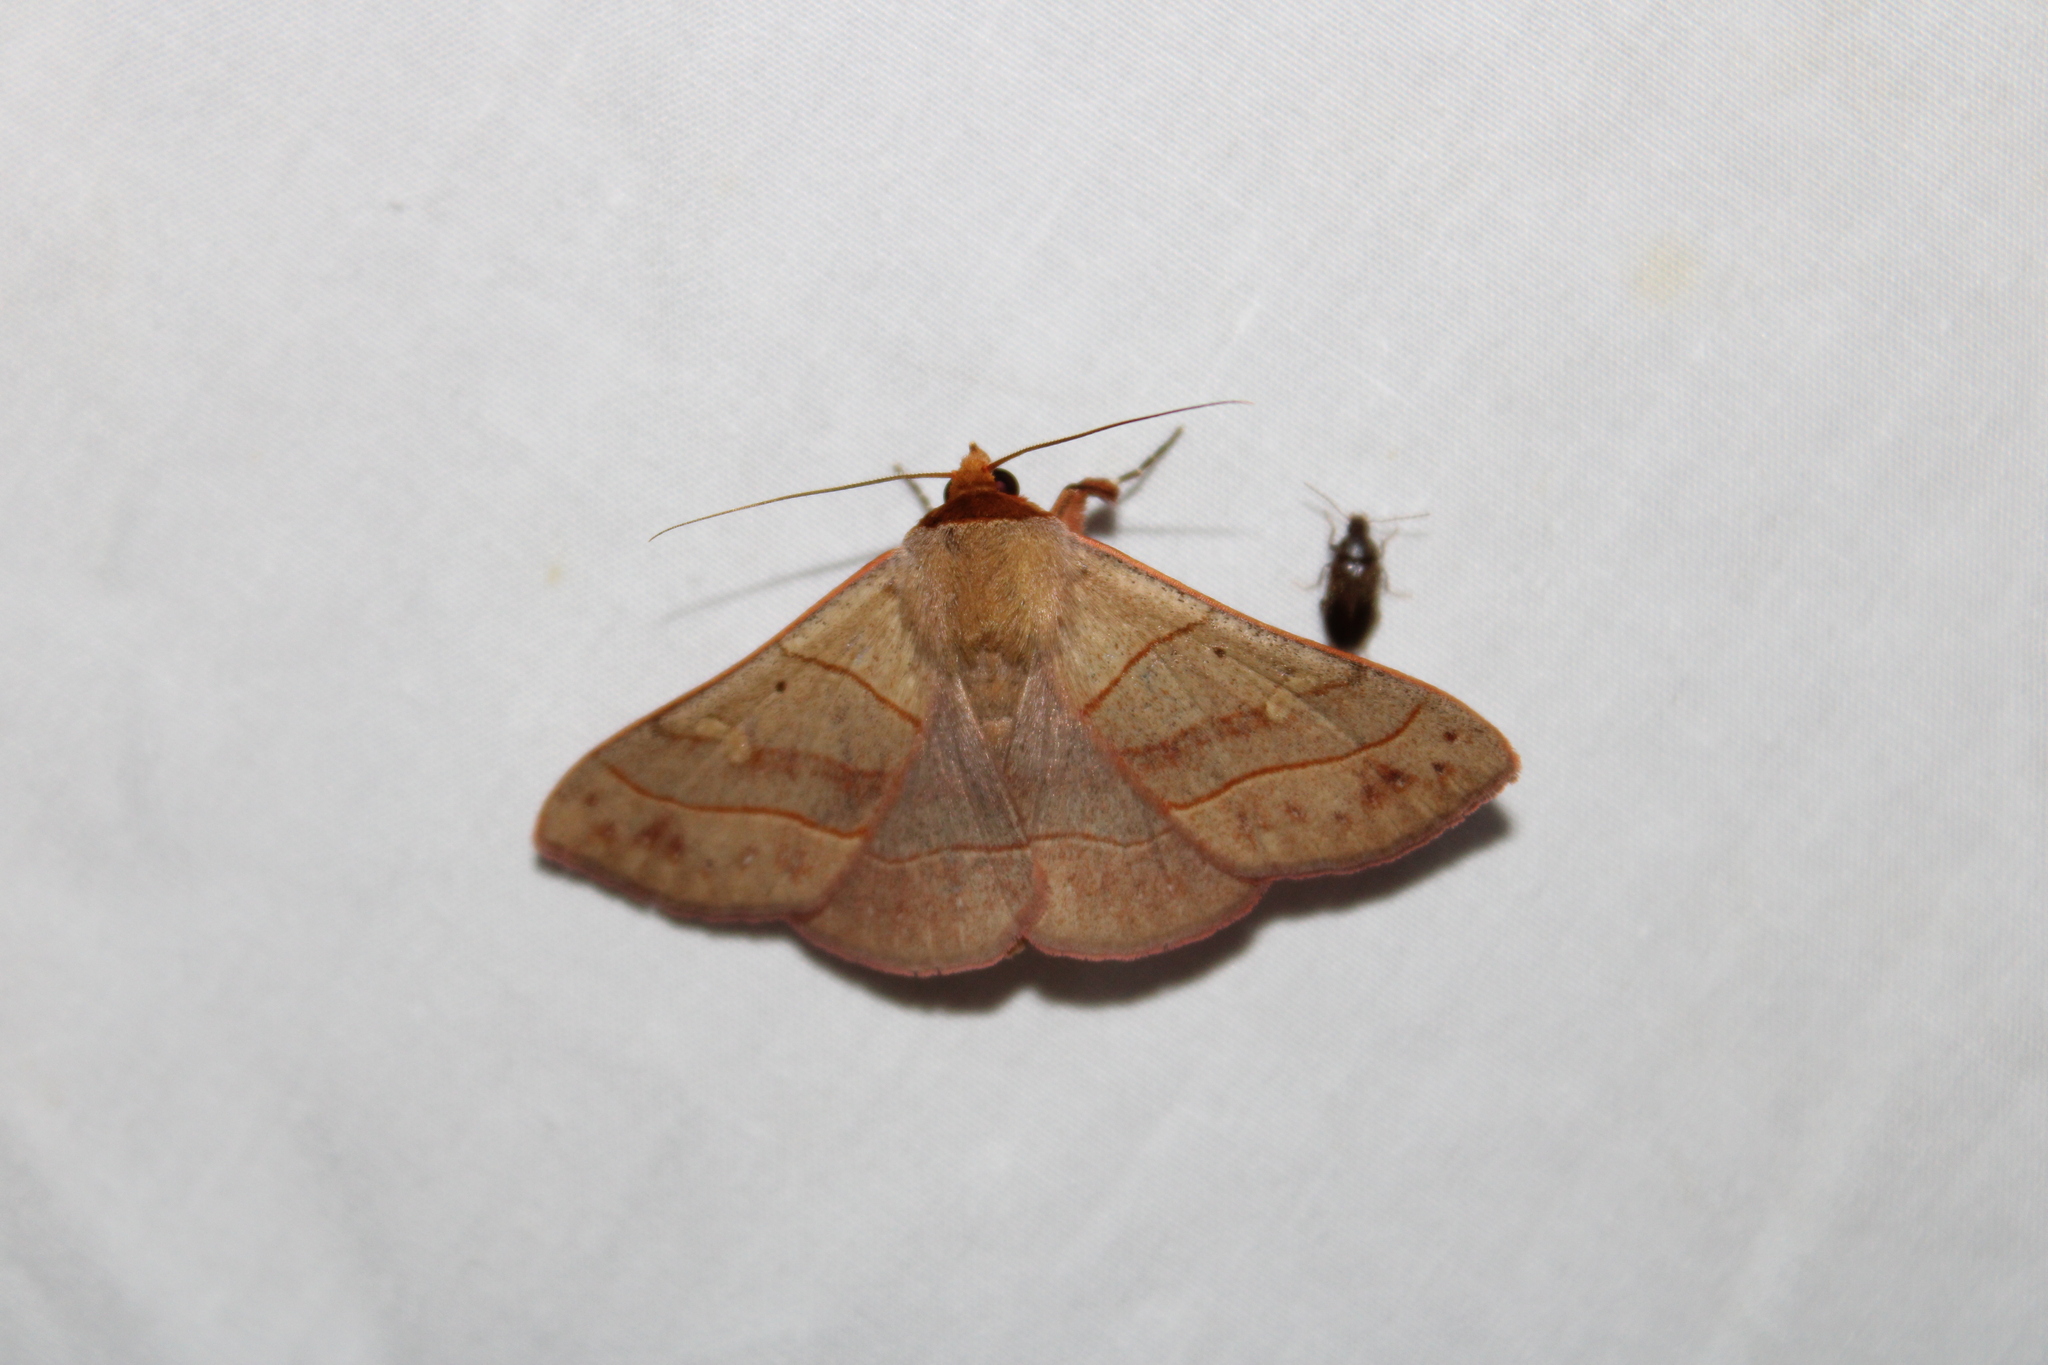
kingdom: Animalia
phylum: Arthropoda
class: Insecta
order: Lepidoptera
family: Erebidae
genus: Panopoda
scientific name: Panopoda rufimargo
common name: Red-lined panopoda moth
